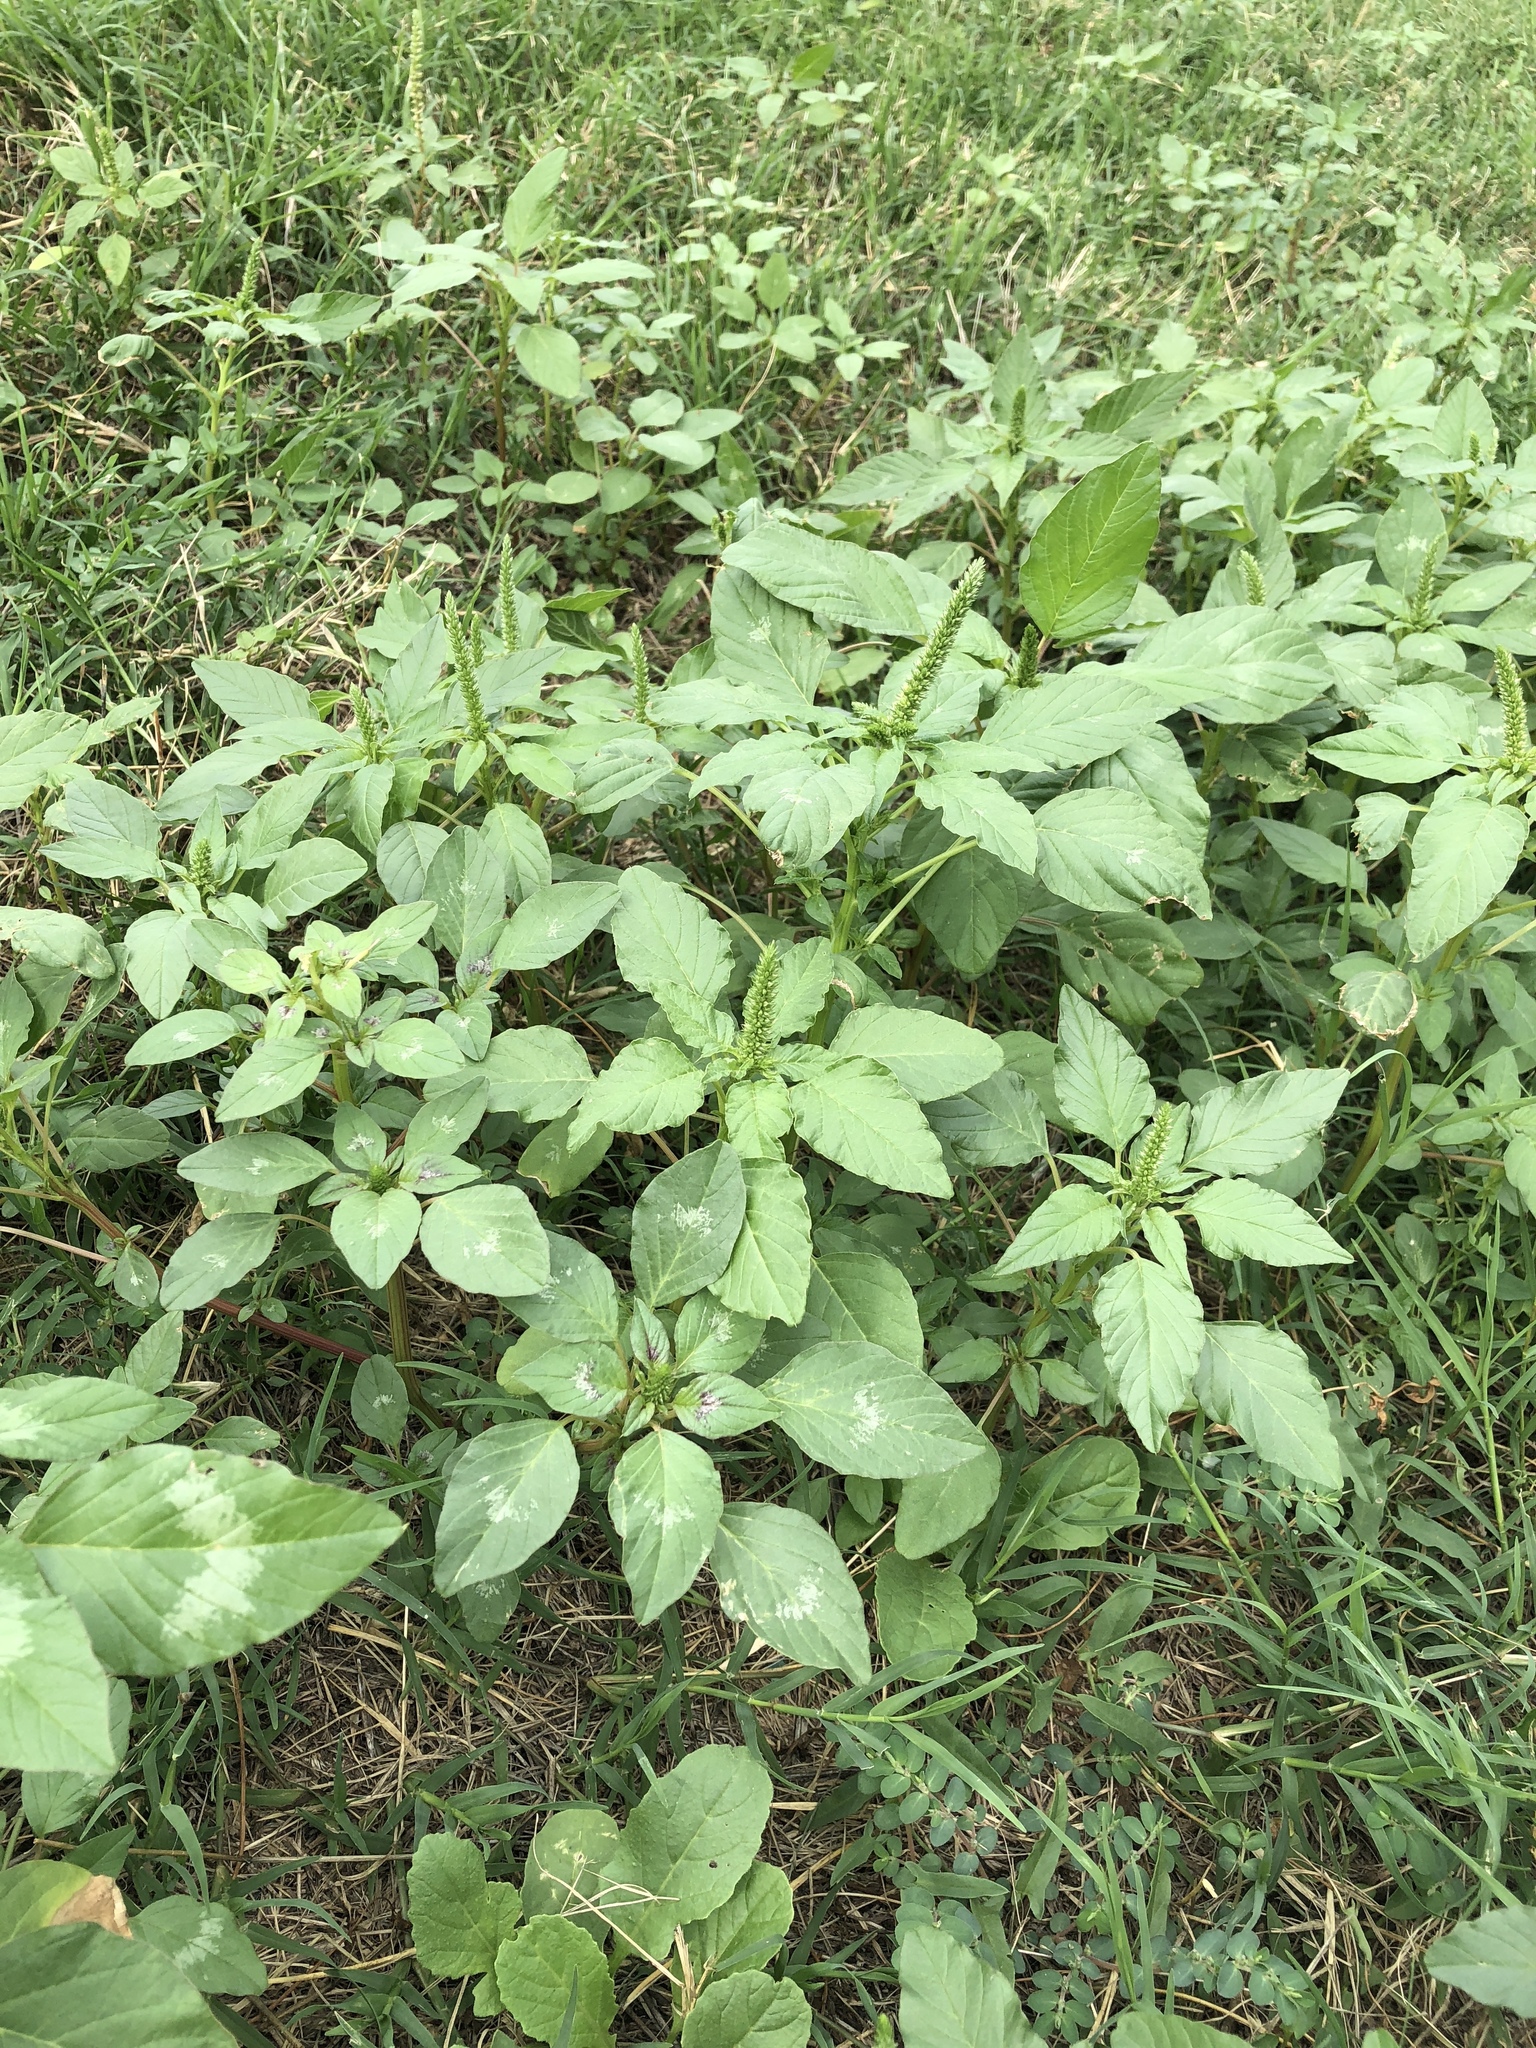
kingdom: Plantae
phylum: Tracheophyta
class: Magnoliopsida
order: Caryophyllales
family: Amaranthaceae
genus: Amaranthus
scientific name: Amaranthus palmeri
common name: Dioecious amaranth
